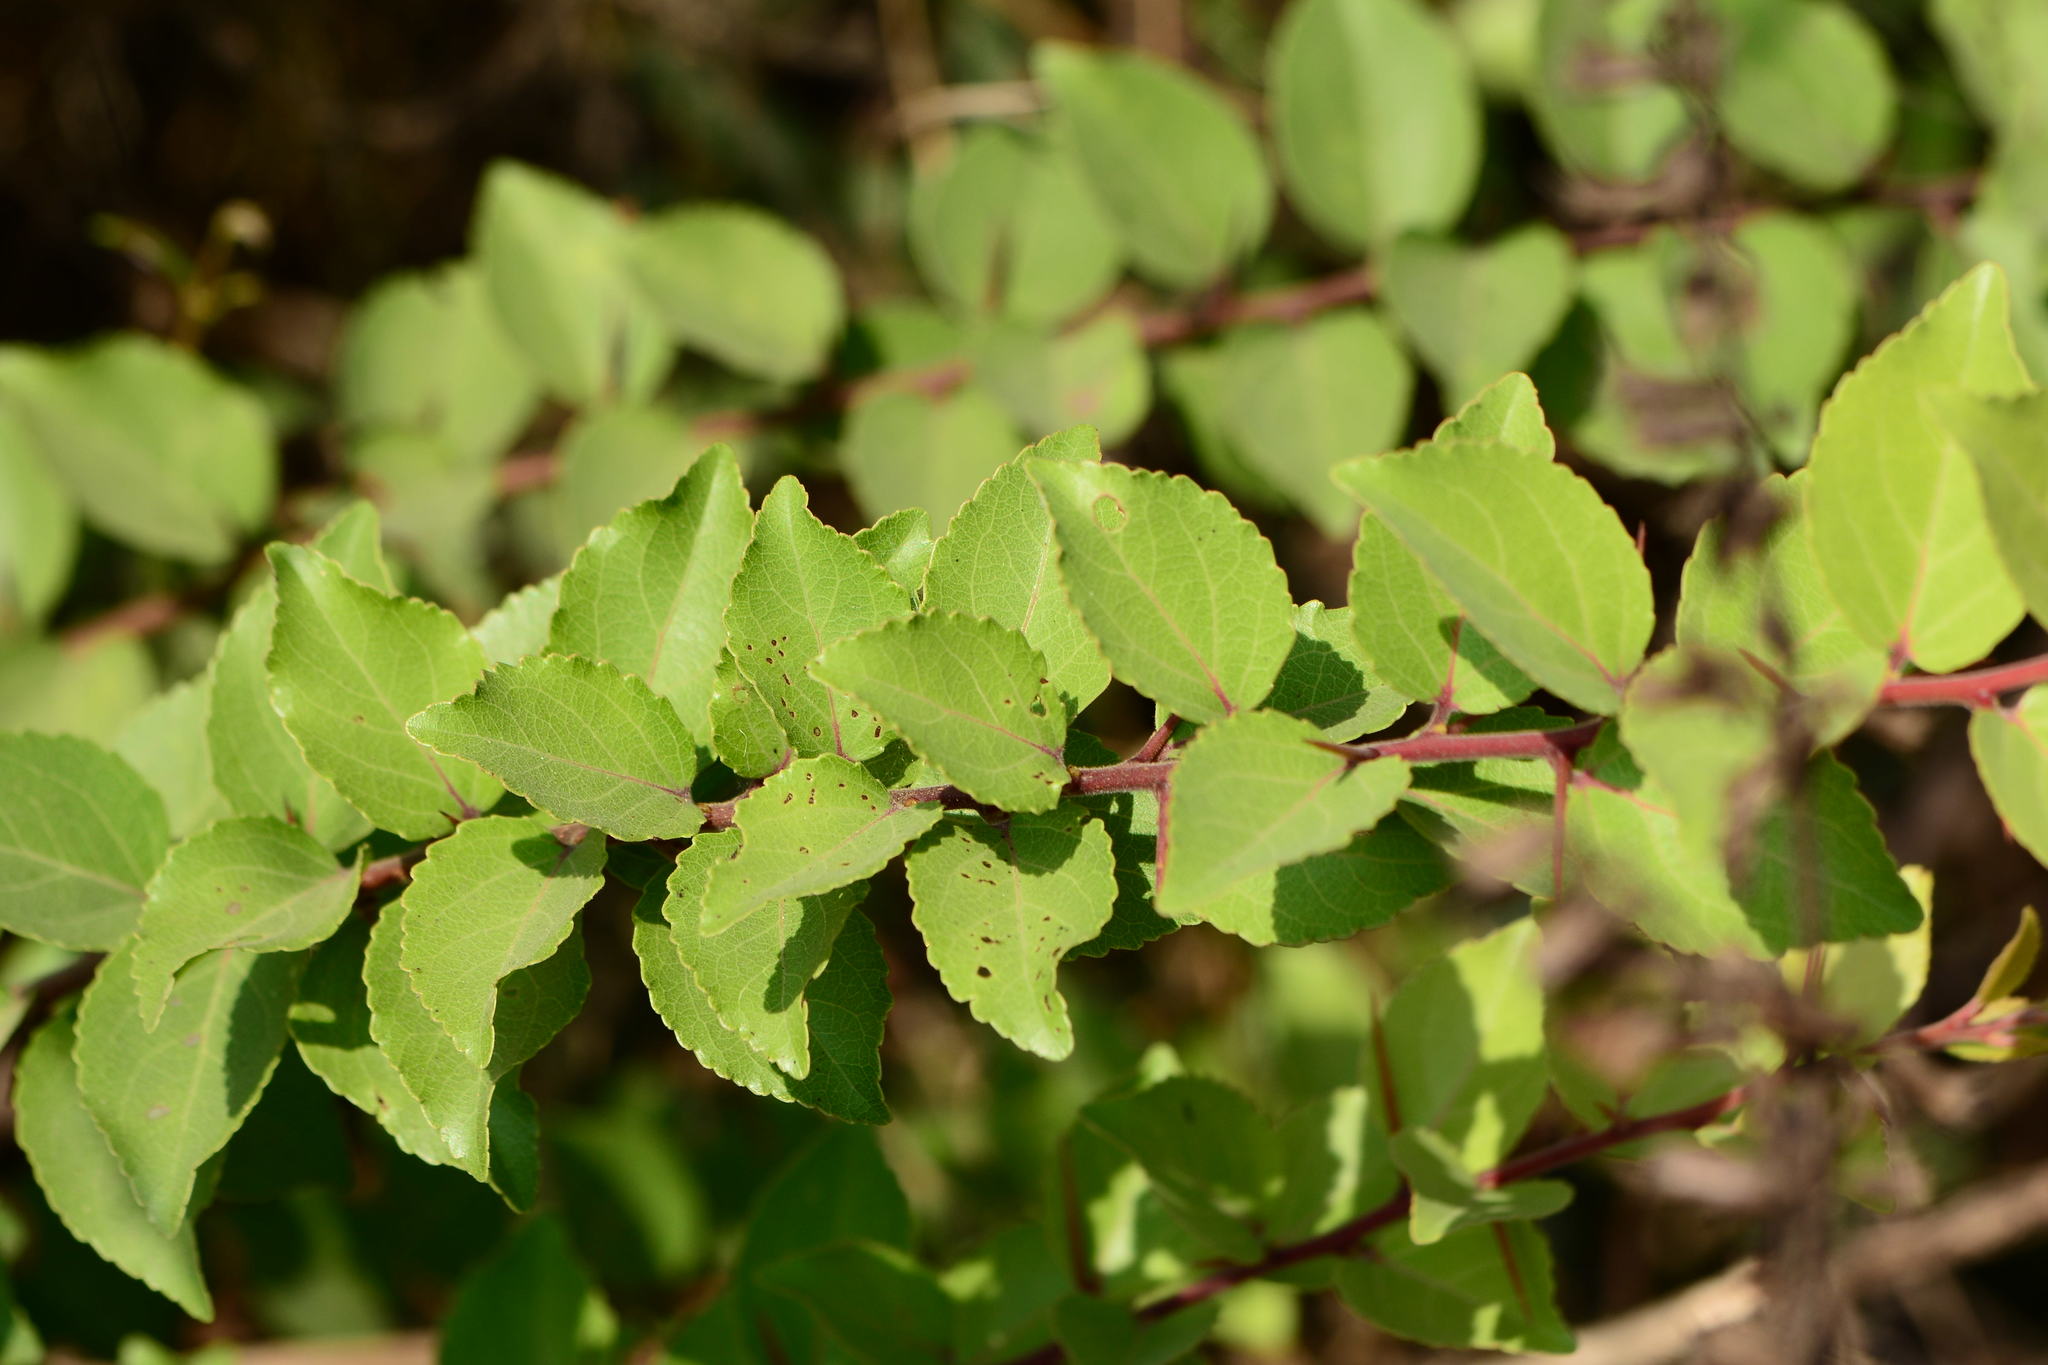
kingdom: Plantae
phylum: Tracheophyta
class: Magnoliopsida
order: Malpighiales
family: Salicaceae
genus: Flacourtia
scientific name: Flacourtia indica
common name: Governor's plum
